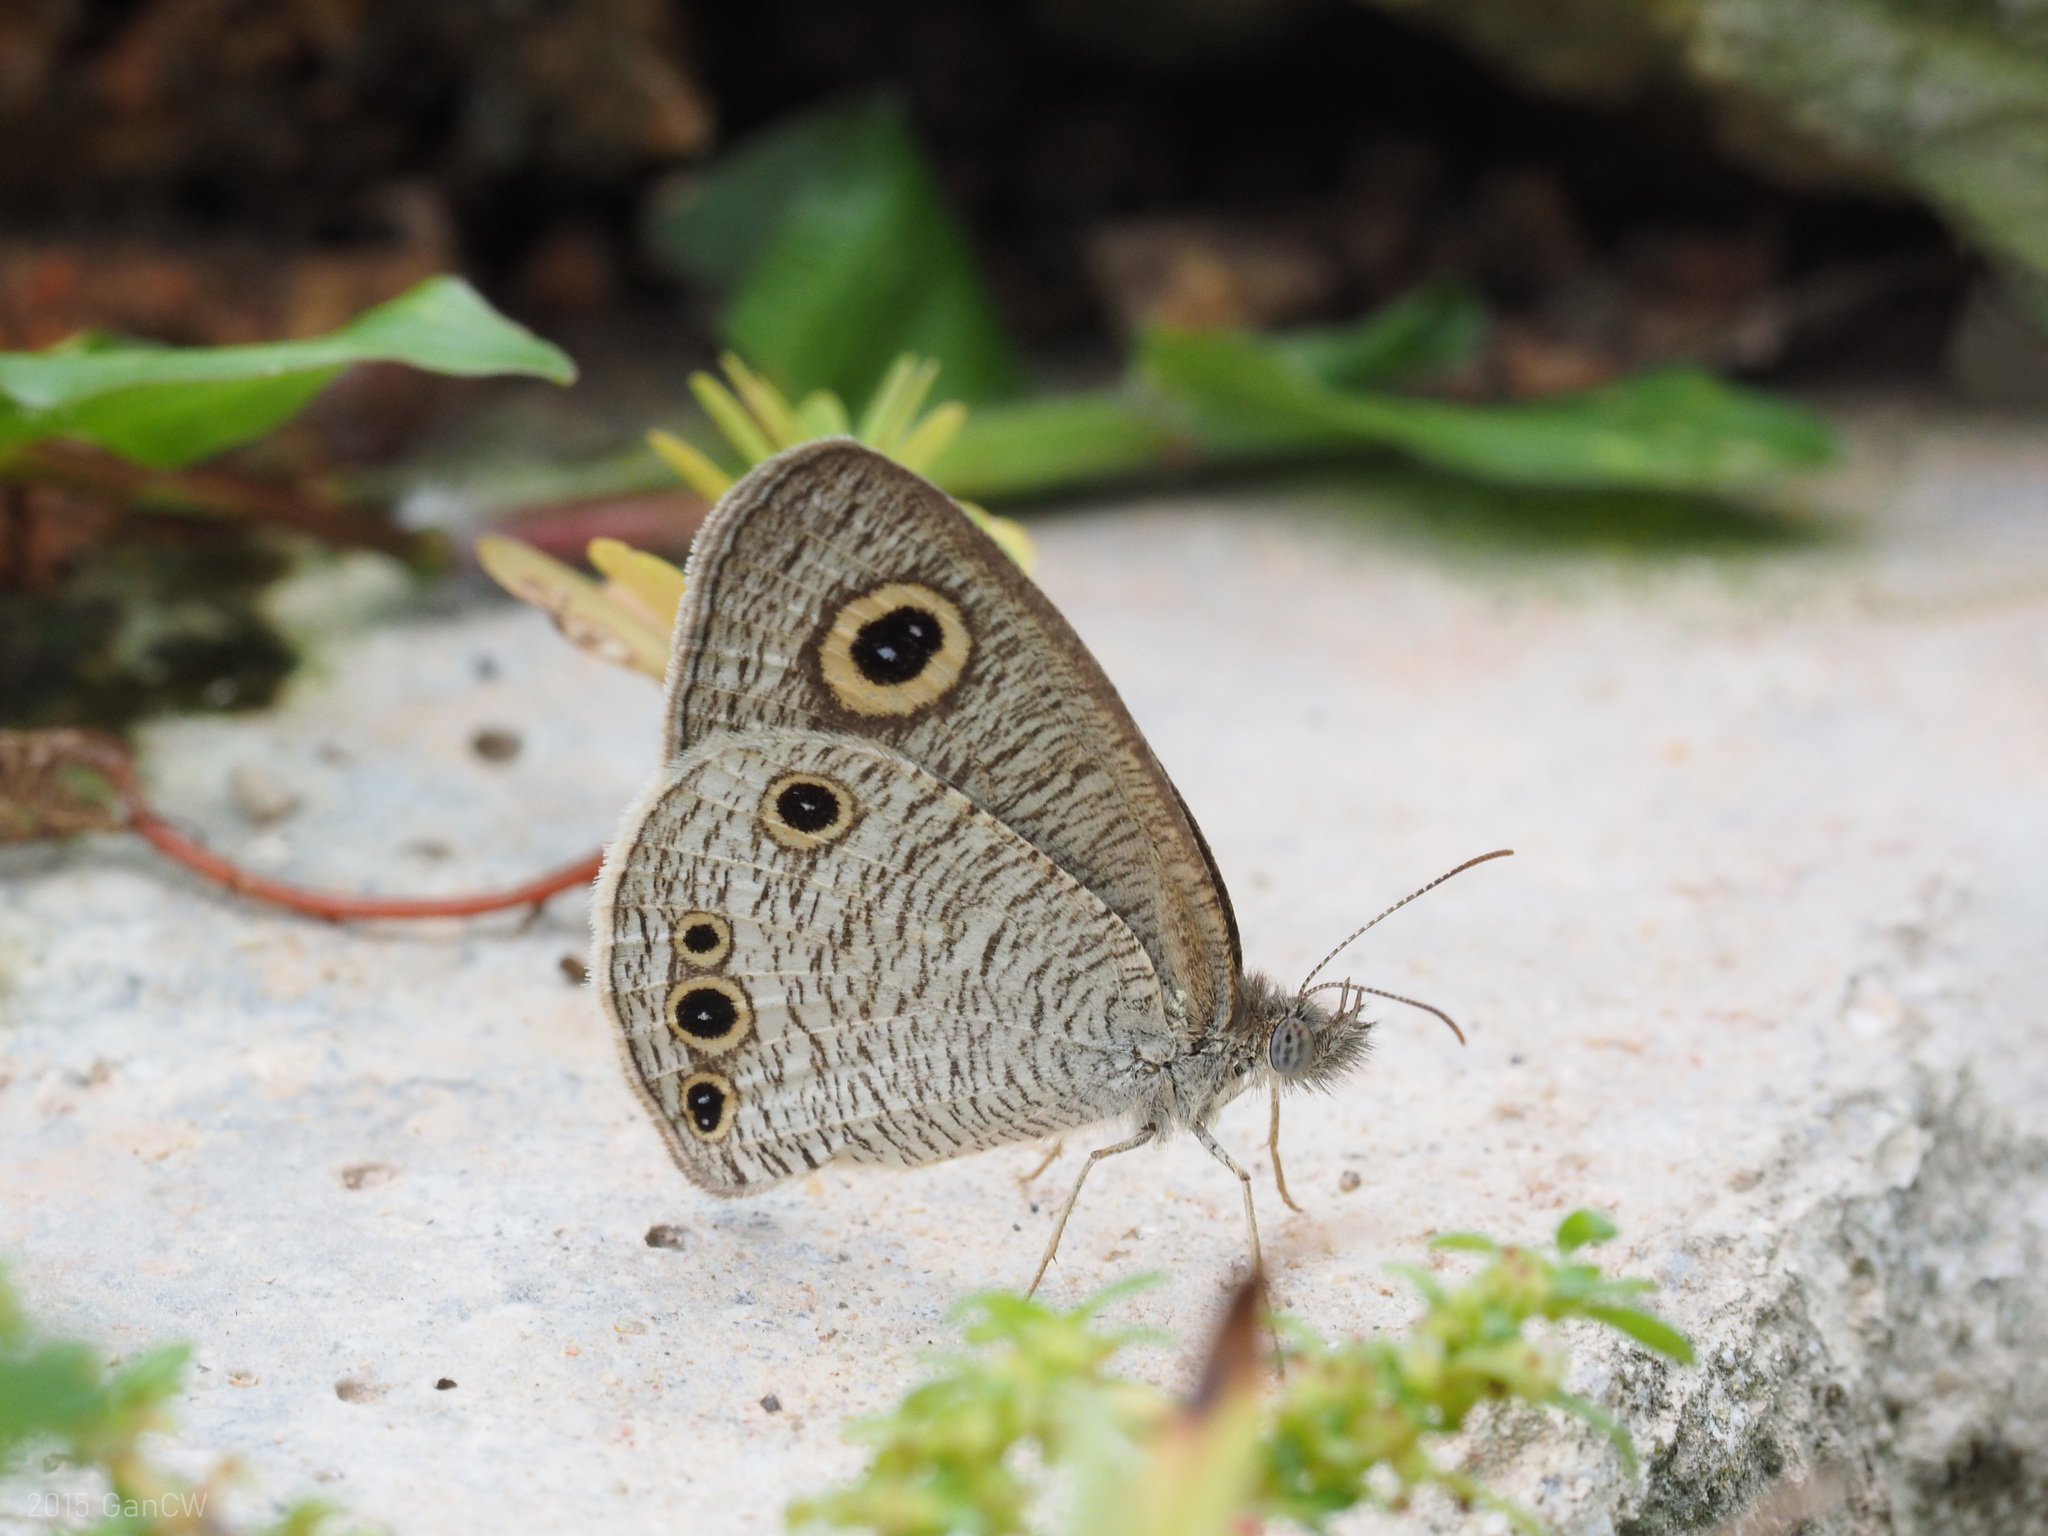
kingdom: Animalia
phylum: Arthropoda
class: Insecta
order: Lepidoptera
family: Nymphalidae
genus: Ypthima
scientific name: Ypthima huebneri
